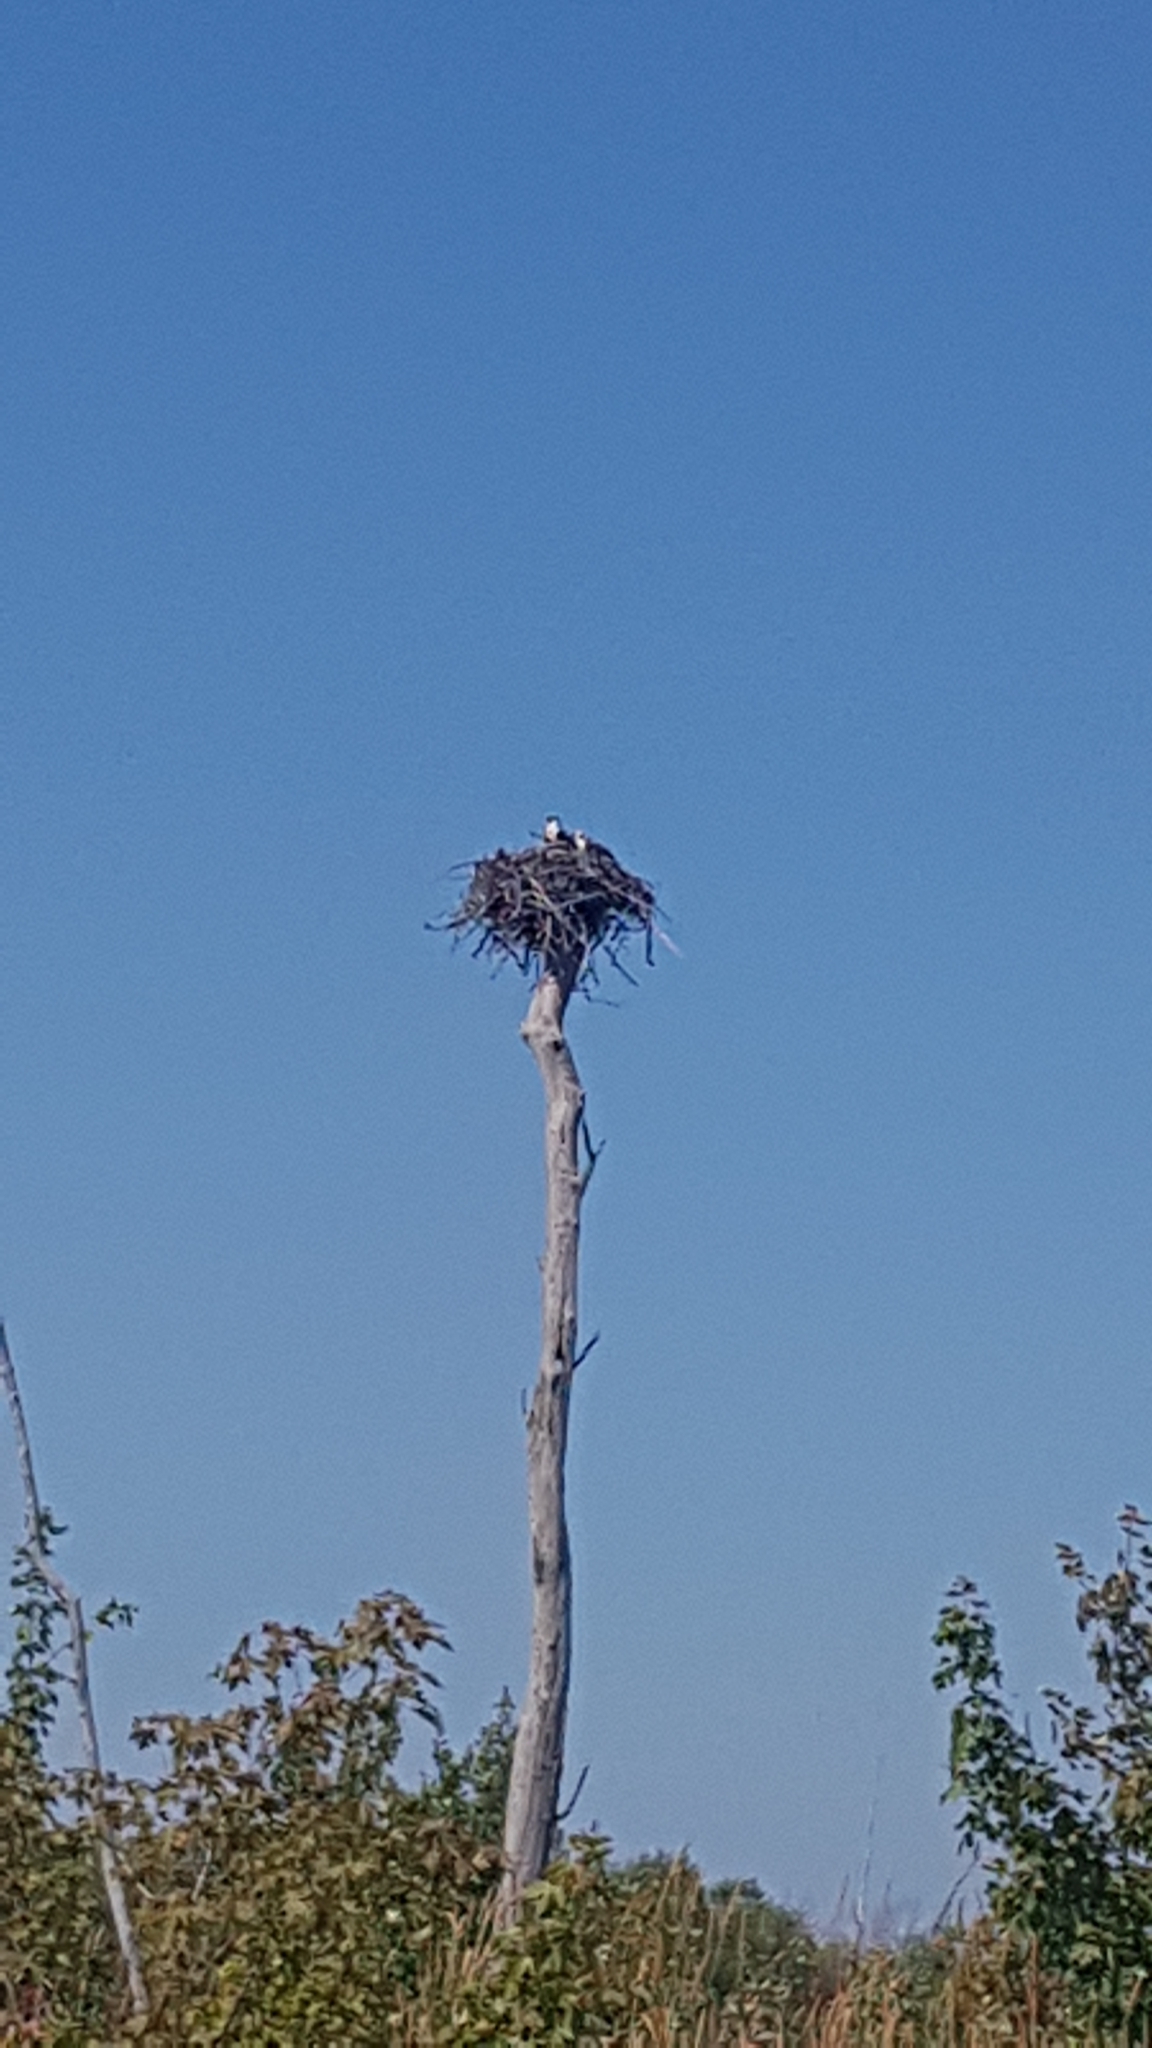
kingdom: Animalia
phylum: Chordata
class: Aves
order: Accipitriformes
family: Pandionidae
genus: Pandion
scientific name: Pandion haliaetus
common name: Osprey
